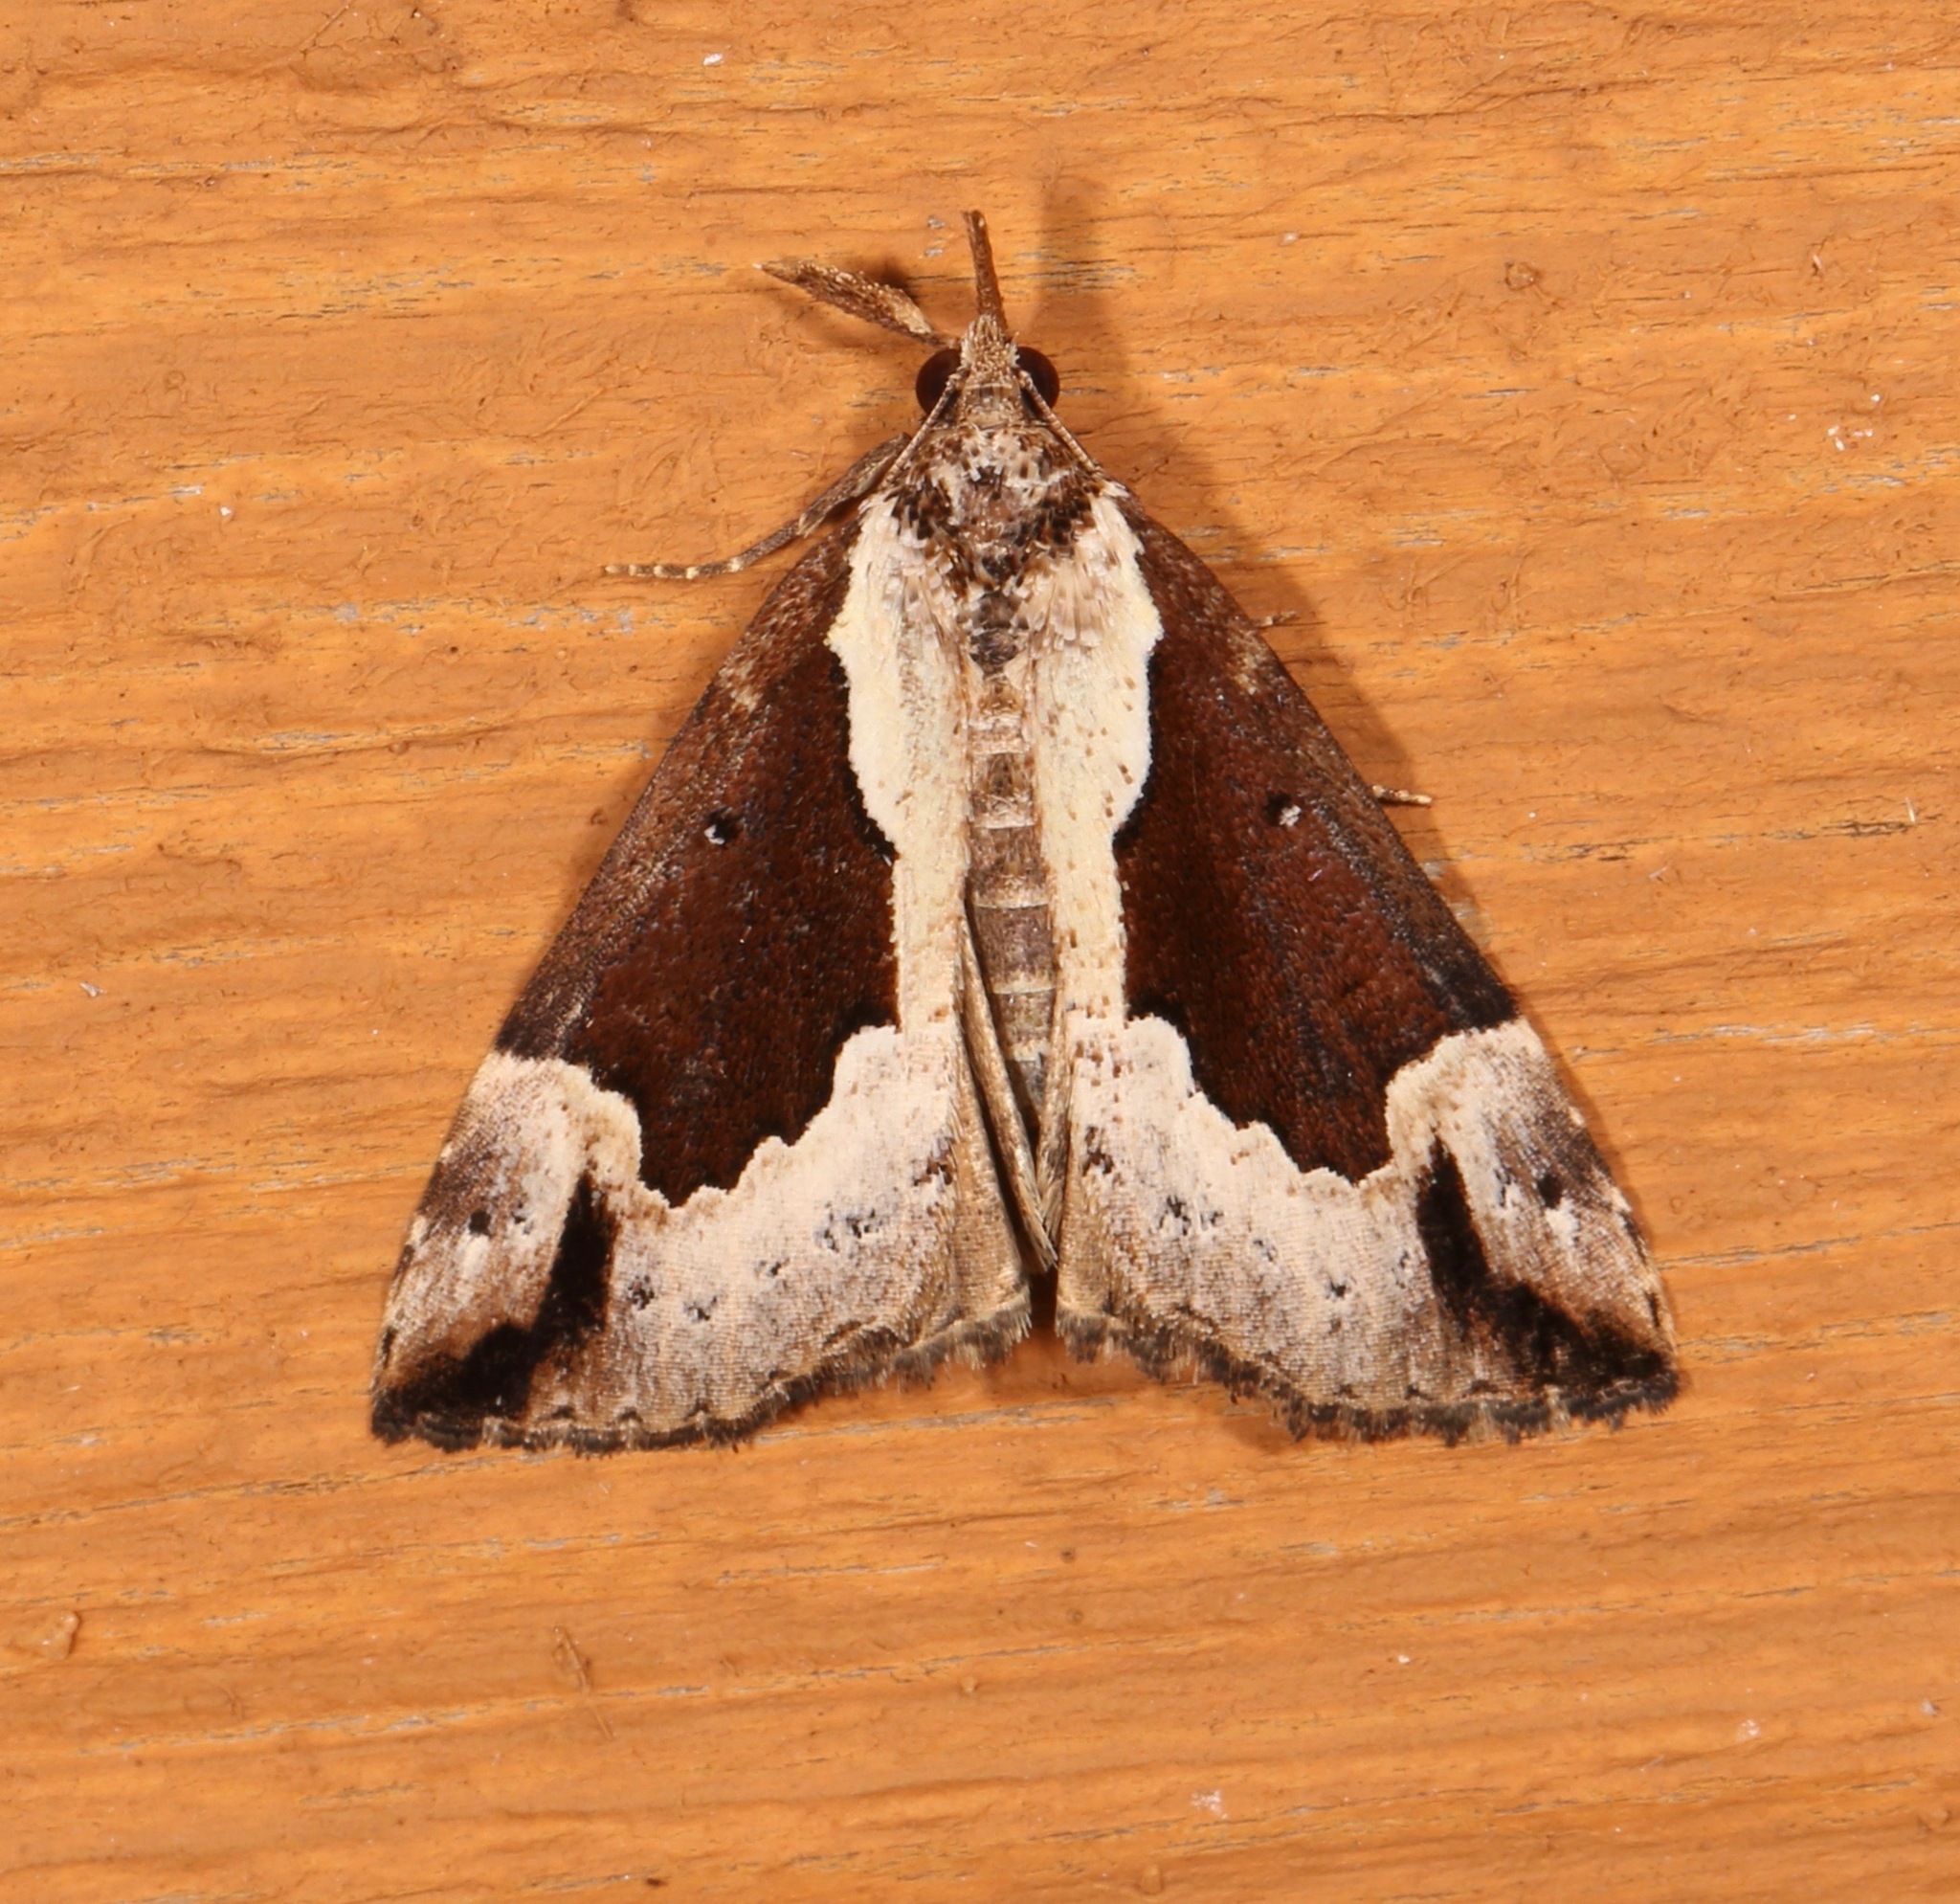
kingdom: Animalia
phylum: Arthropoda
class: Insecta
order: Lepidoptera
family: Erebidae
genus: Hypena
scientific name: Hypena baltimoralis
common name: Baltimore snout
